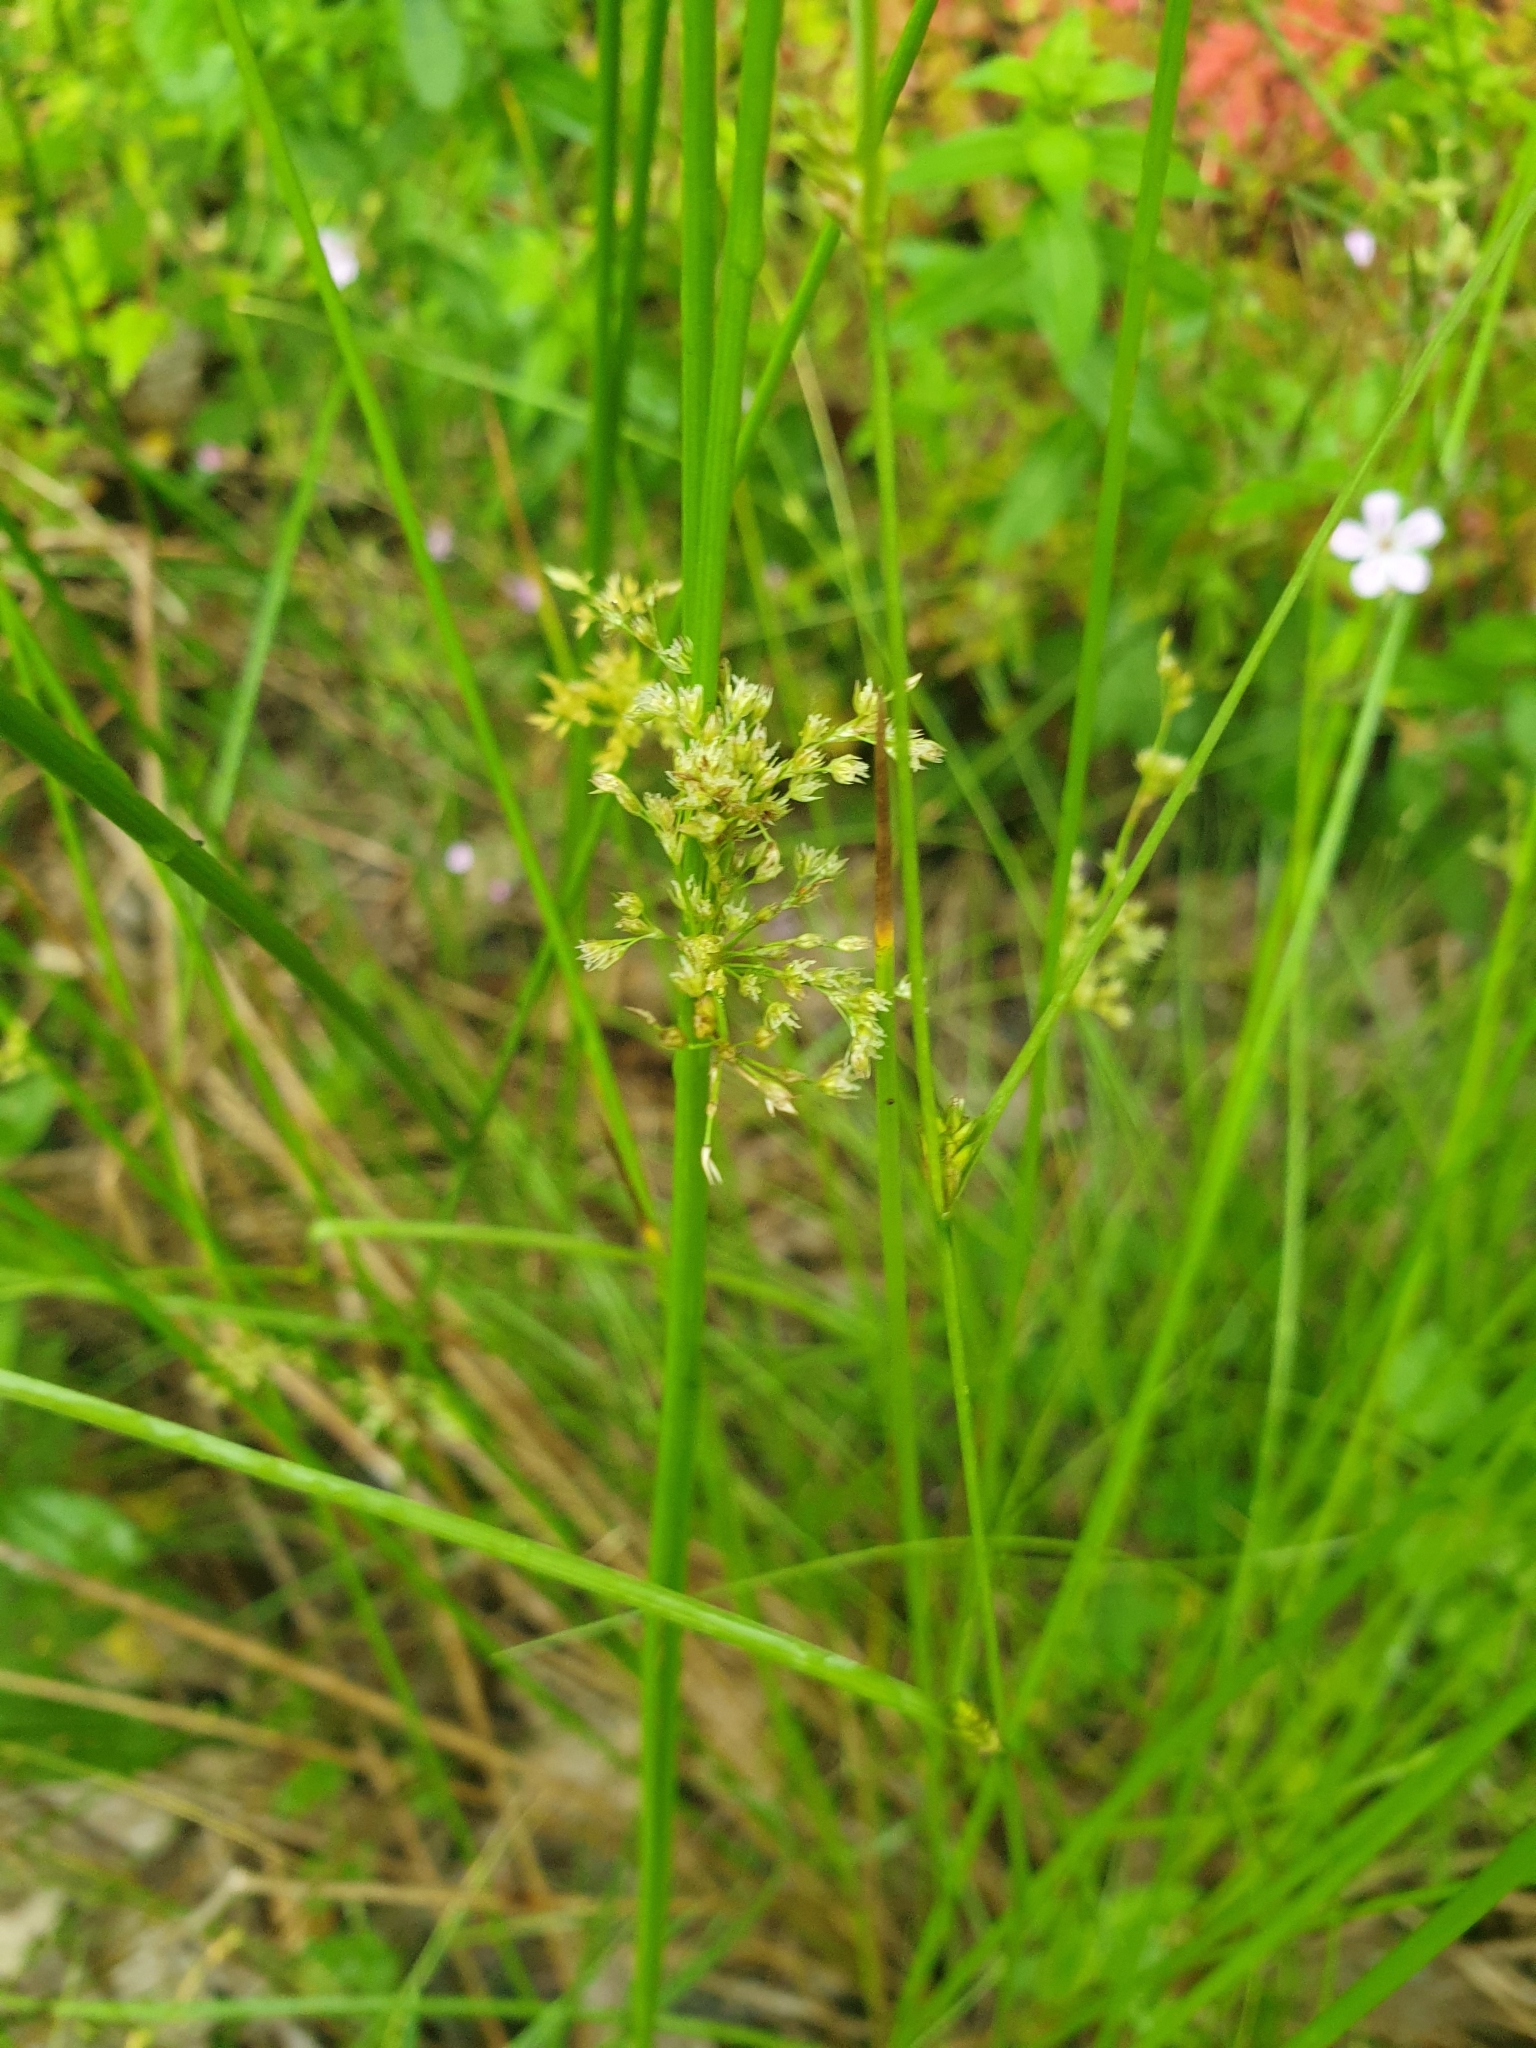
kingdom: Plantae
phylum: Tracheophyta
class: Liliopsida
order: Poales
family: Juncaceae
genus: Juncus
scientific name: Juncus effusus
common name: Soft rush
